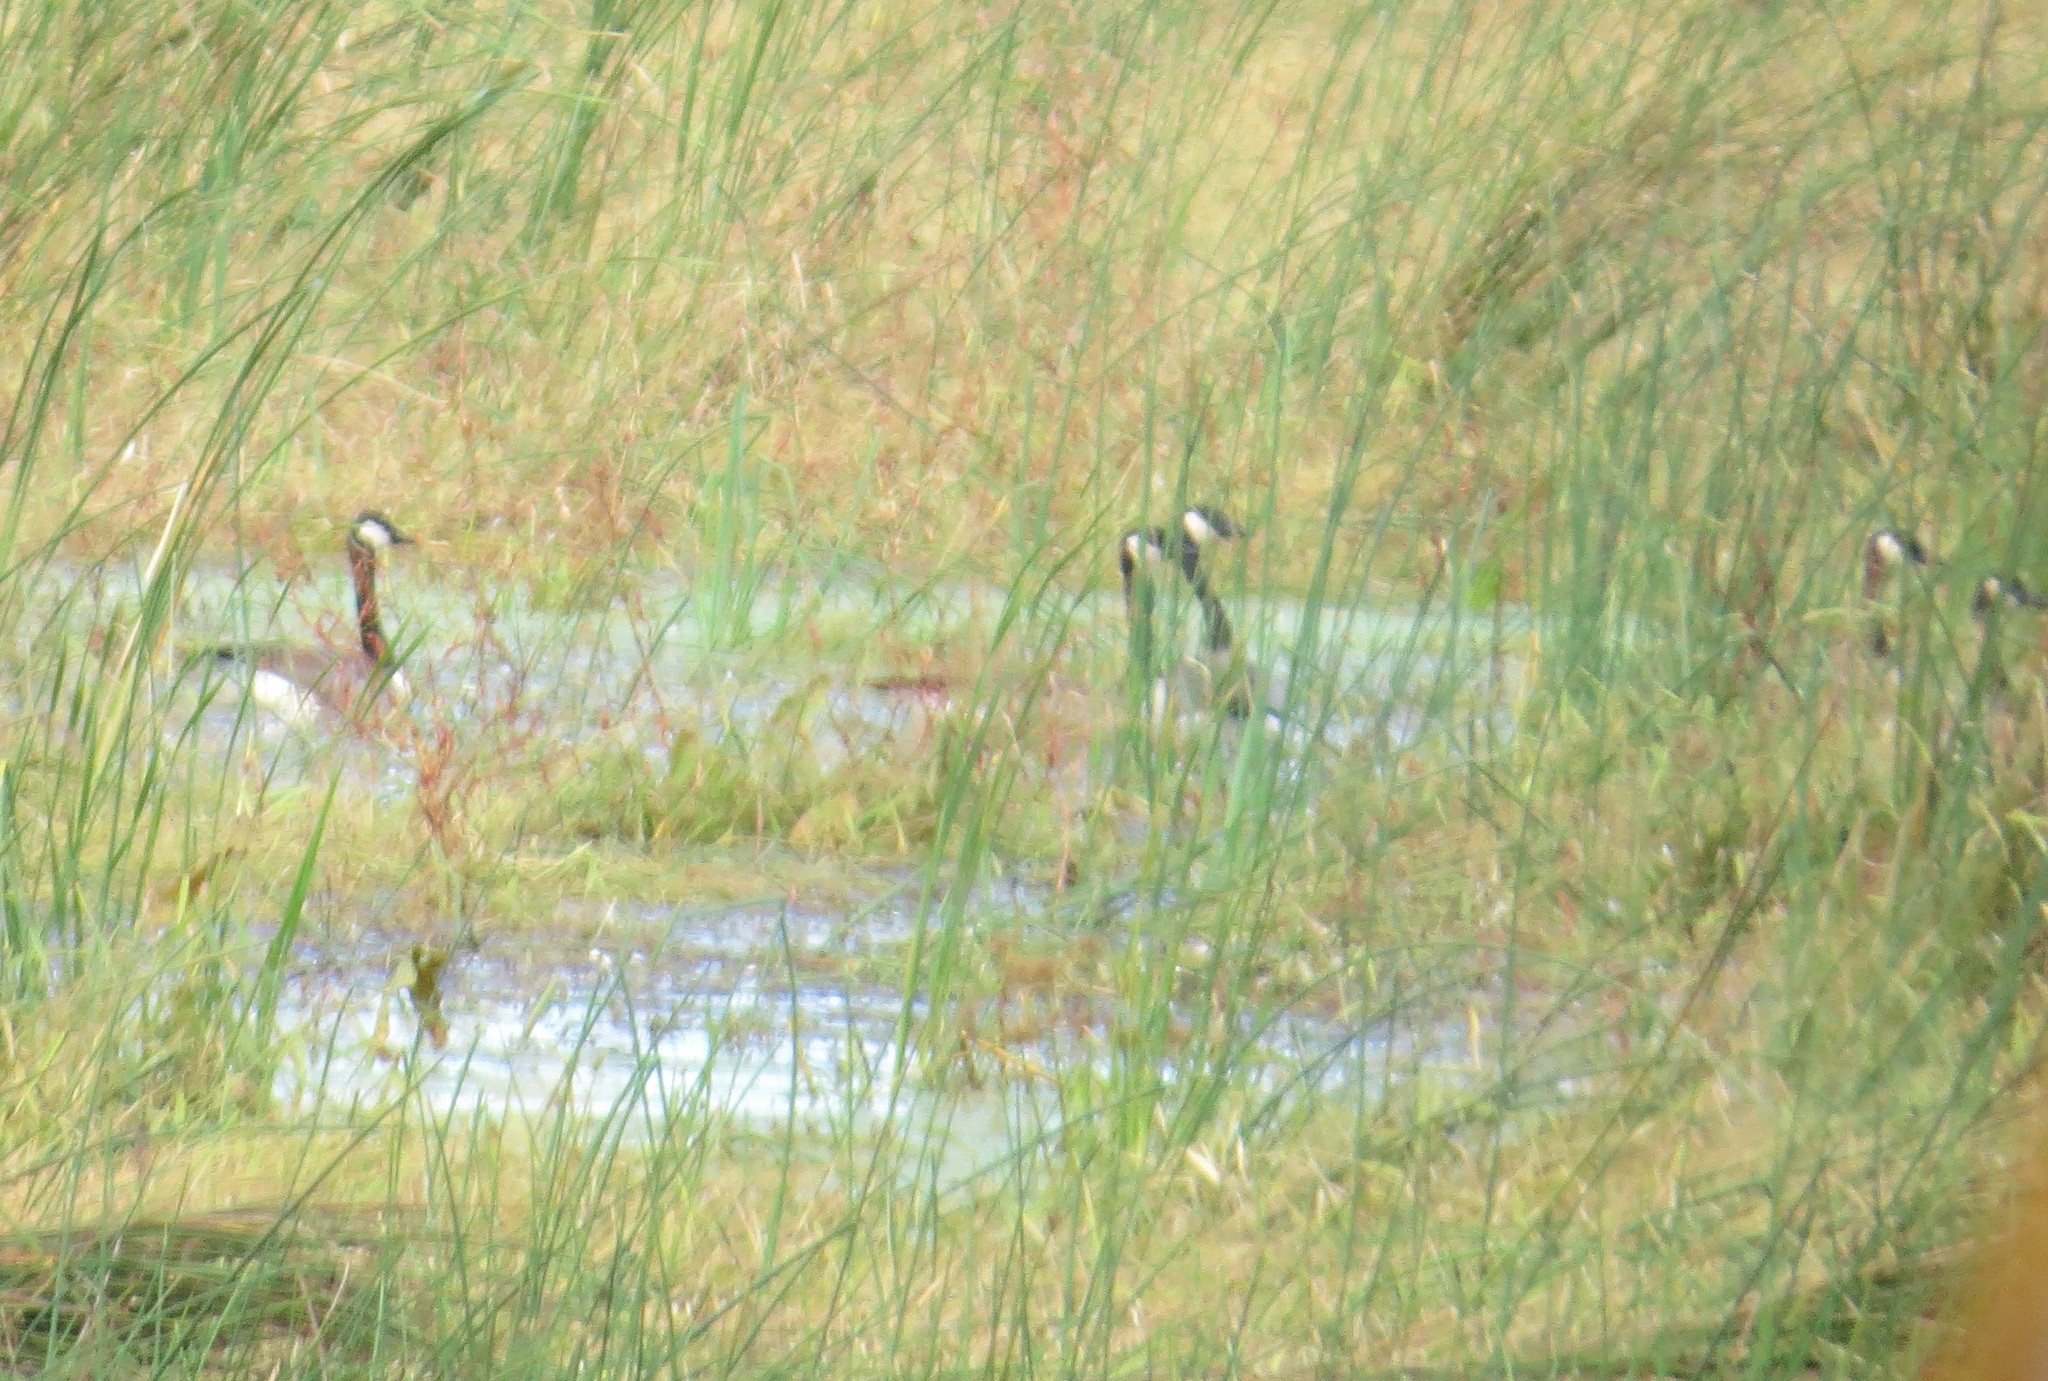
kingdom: Animalia
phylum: Chordata
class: Aves
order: Anseriformes
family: Anatidae
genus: Branta
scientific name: Branta canadensis
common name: Canada goose
